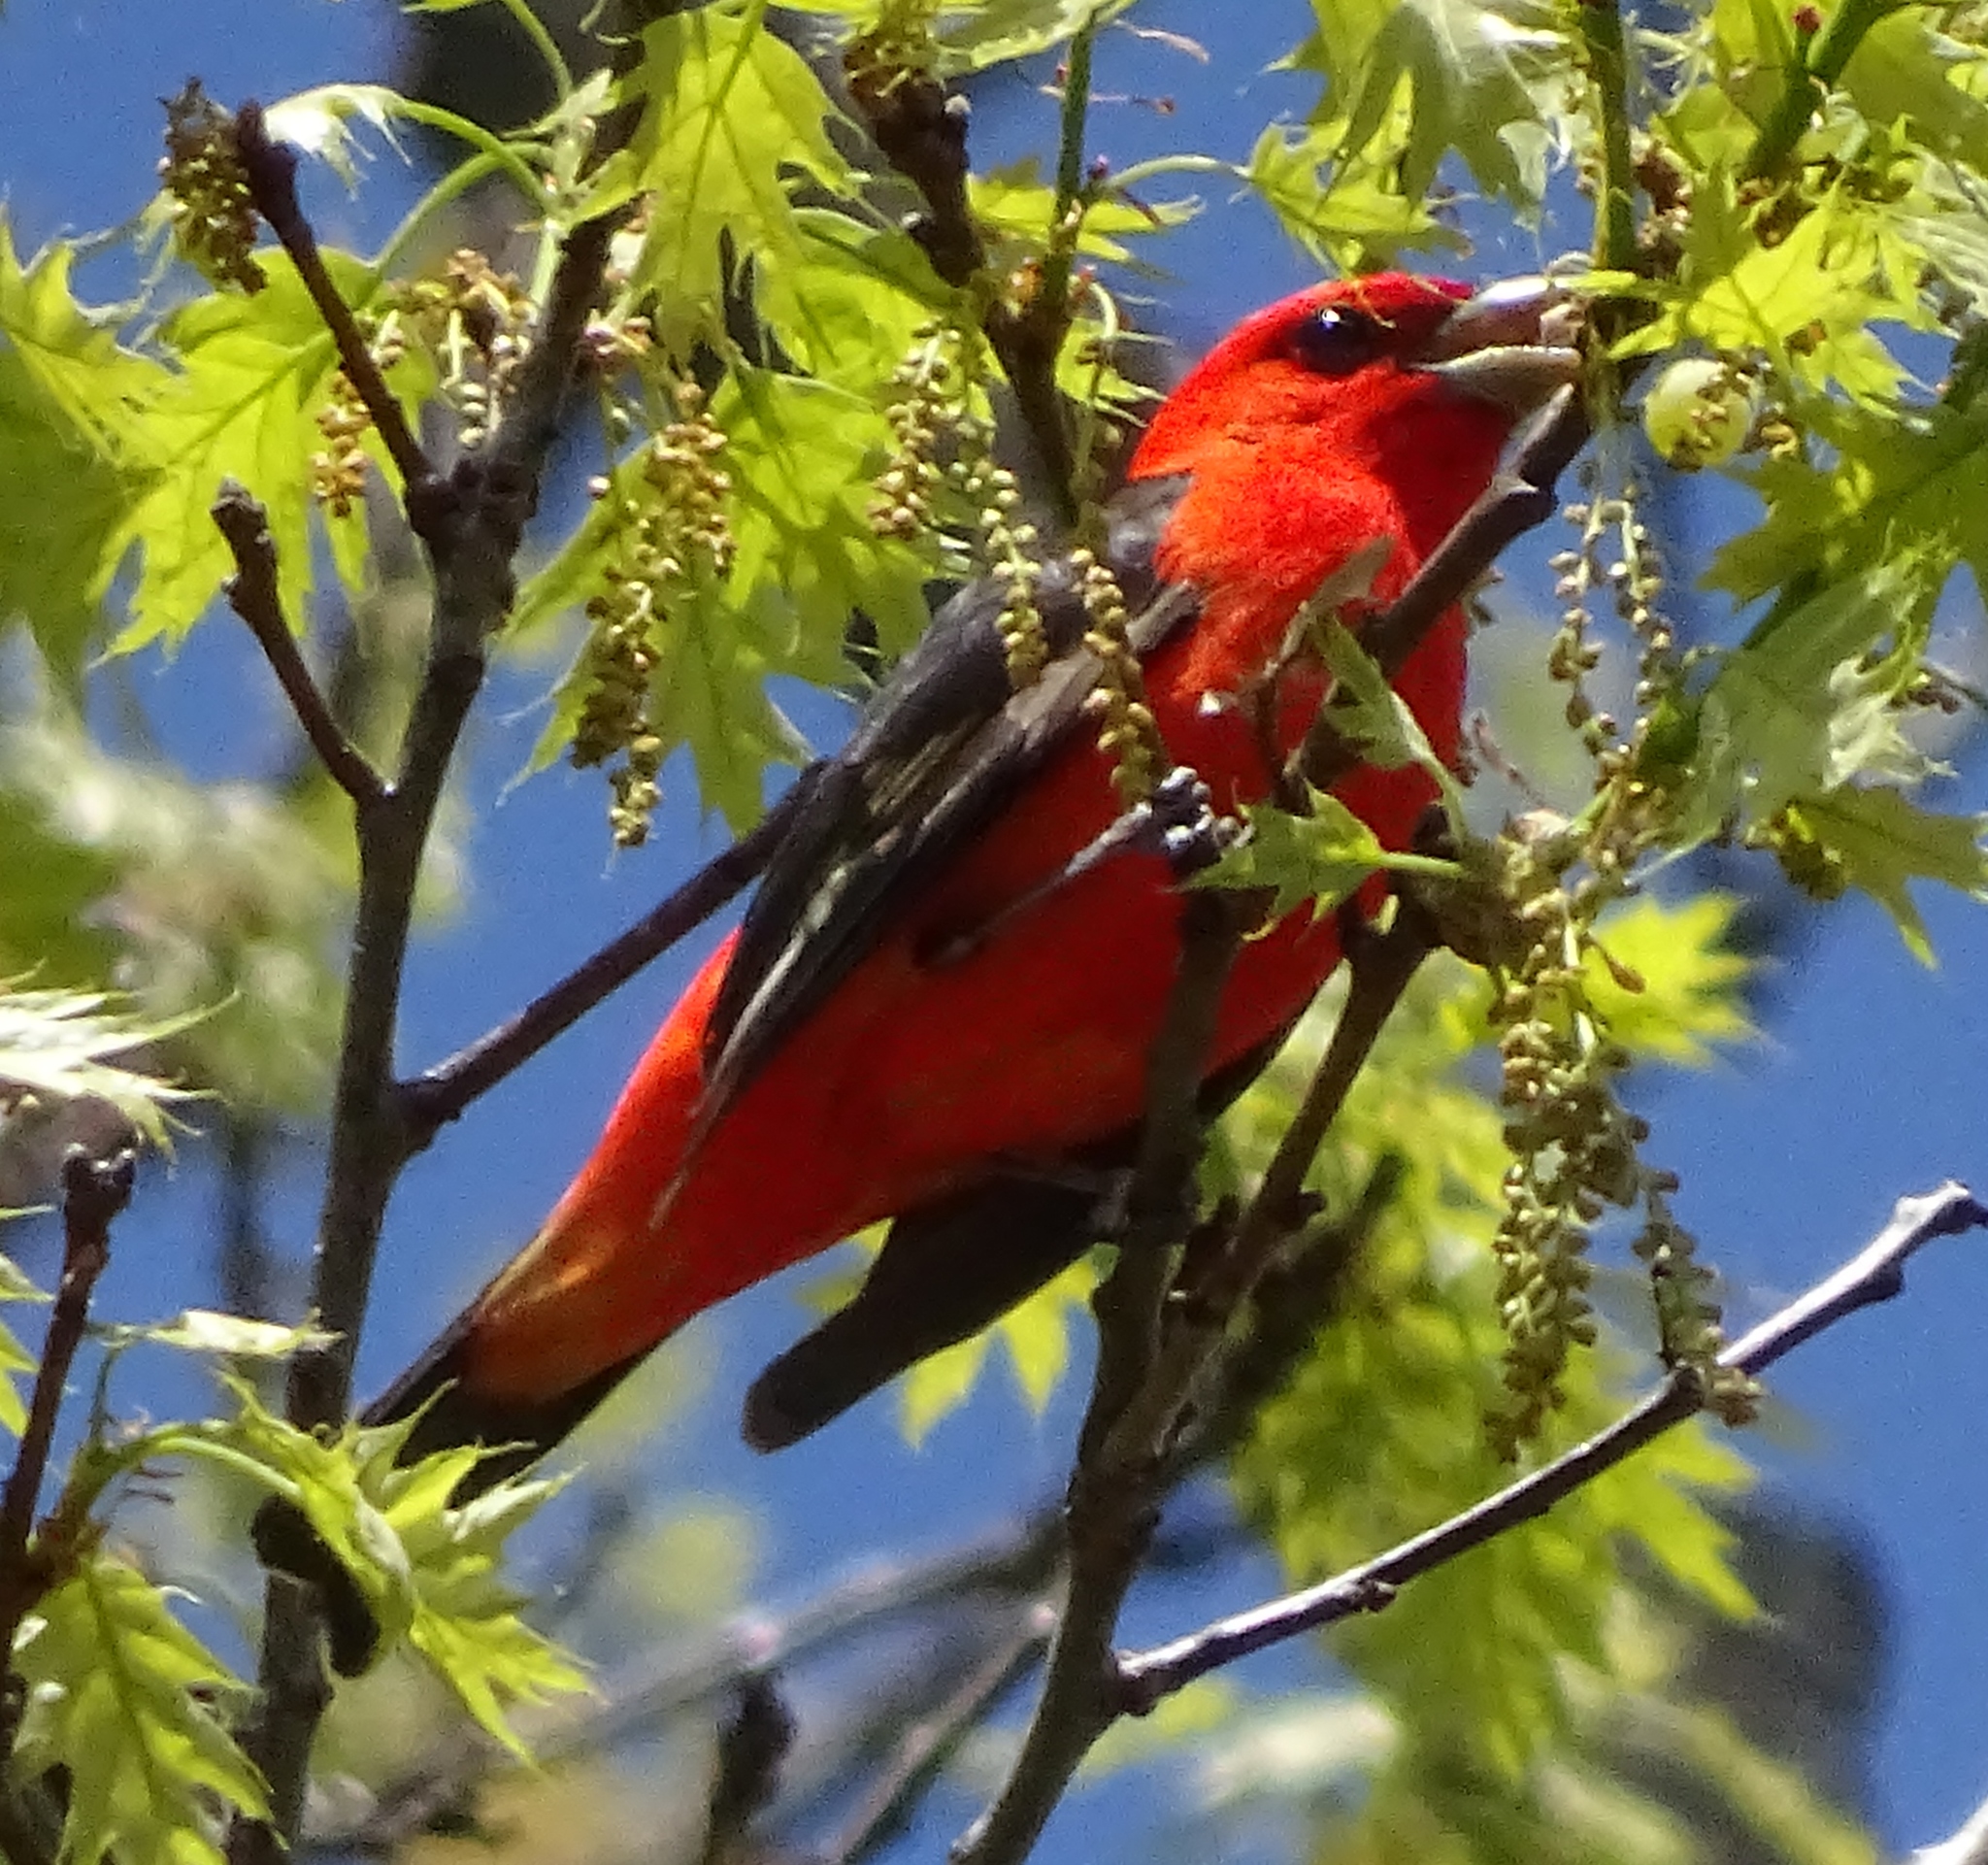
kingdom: Animalia
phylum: Chordata
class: Aves
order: Passeriformes
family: Cardinalidae
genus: Piranga
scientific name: Piranga olivacea
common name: Scarlet tanager
